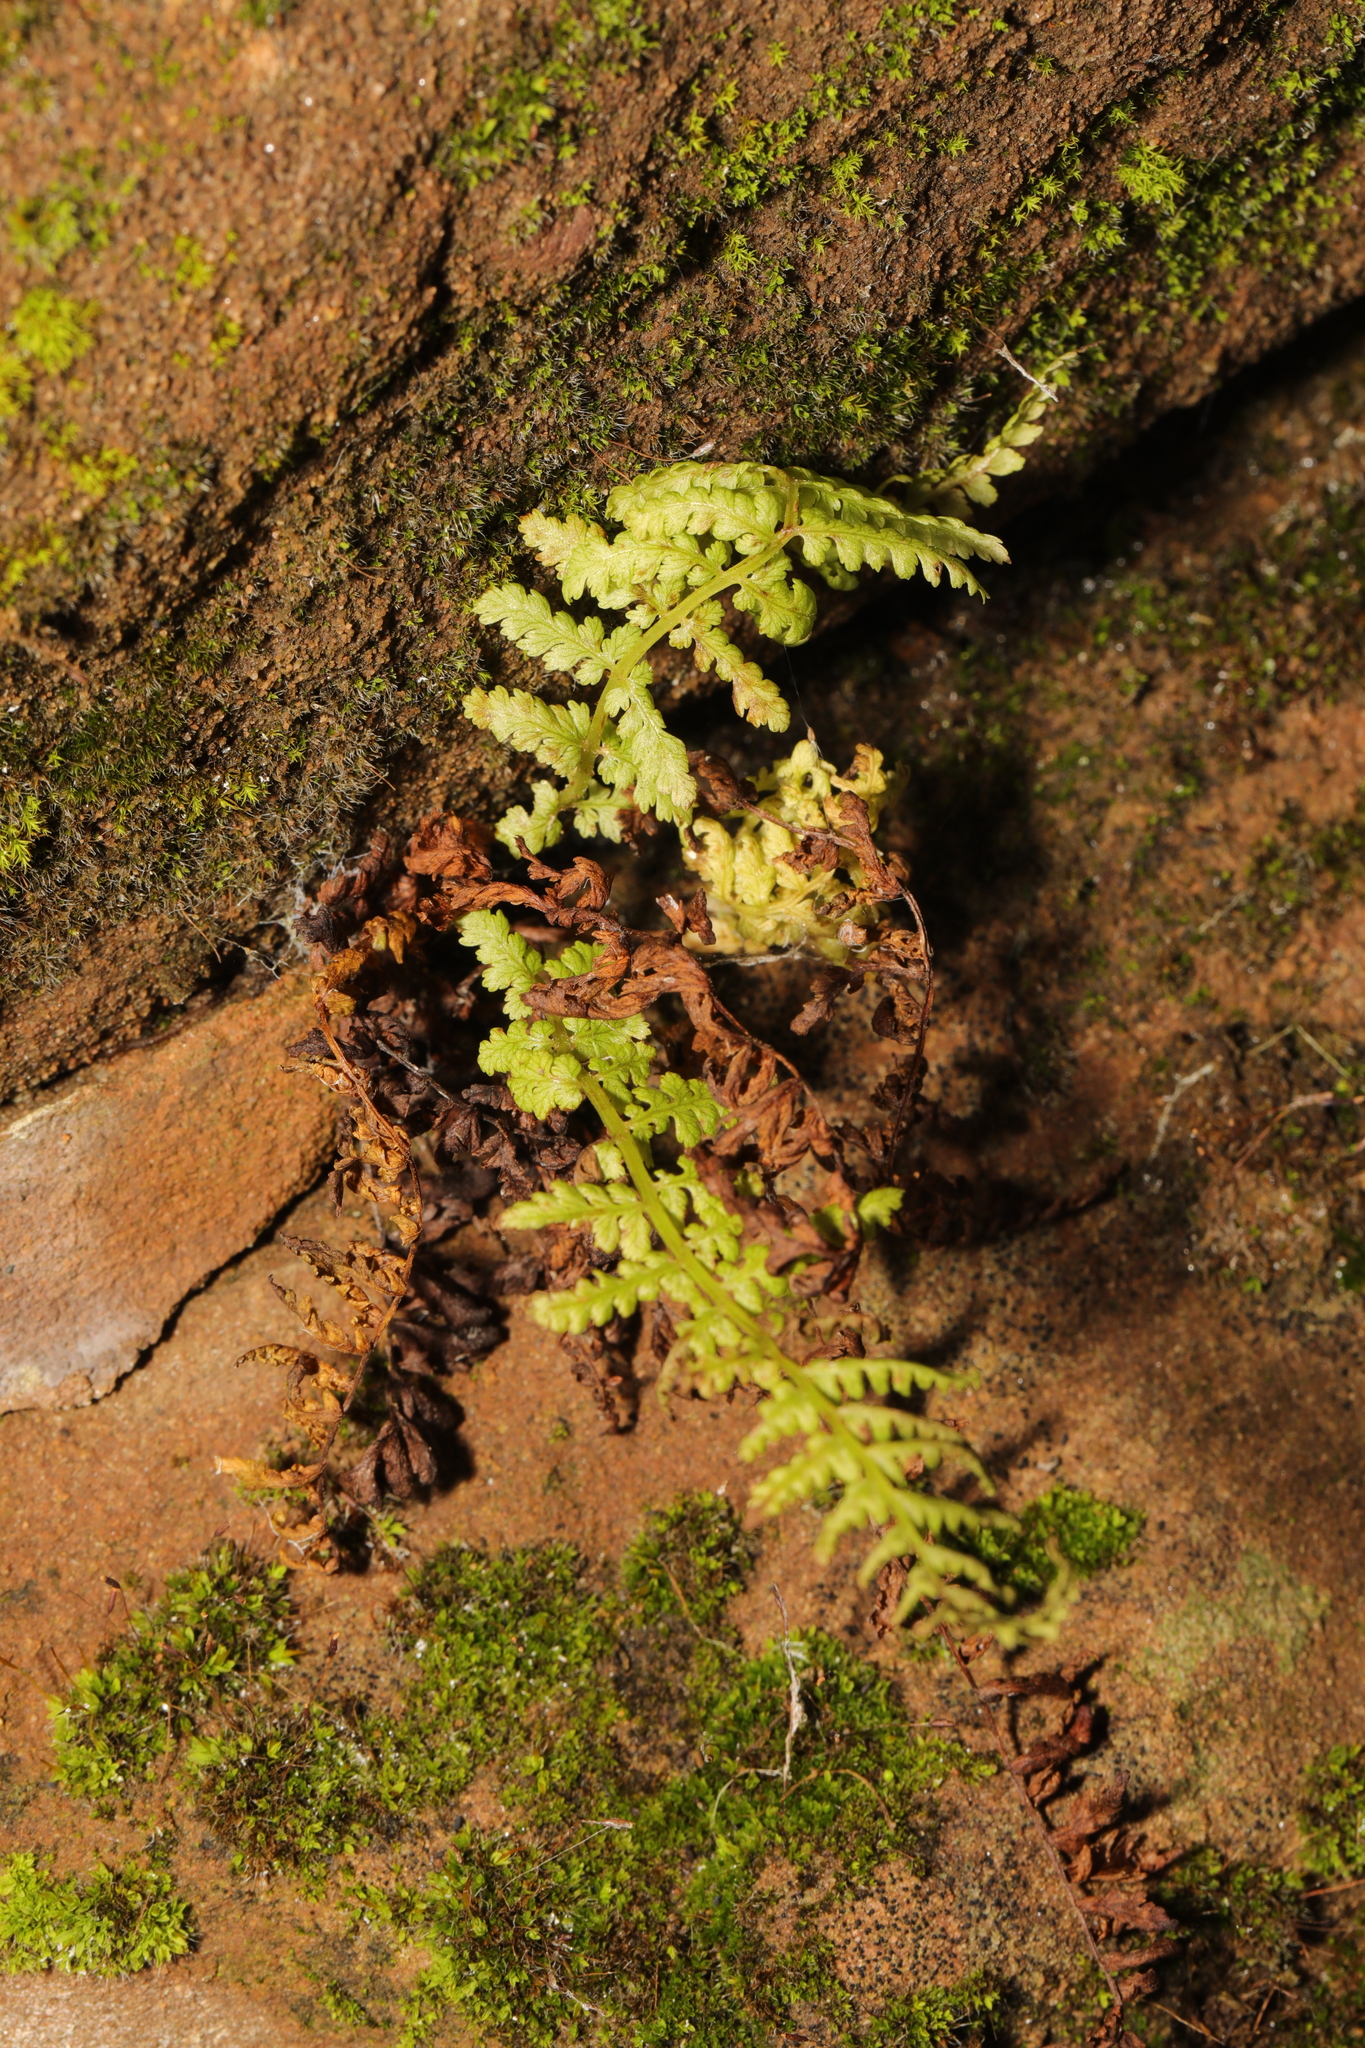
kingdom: Plantae
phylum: Tracheophyta
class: Polypodiopsida
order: Polypodiales
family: Athyriaceae
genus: Athyrium
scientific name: Athyrium filix-femina
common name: Lady fern
